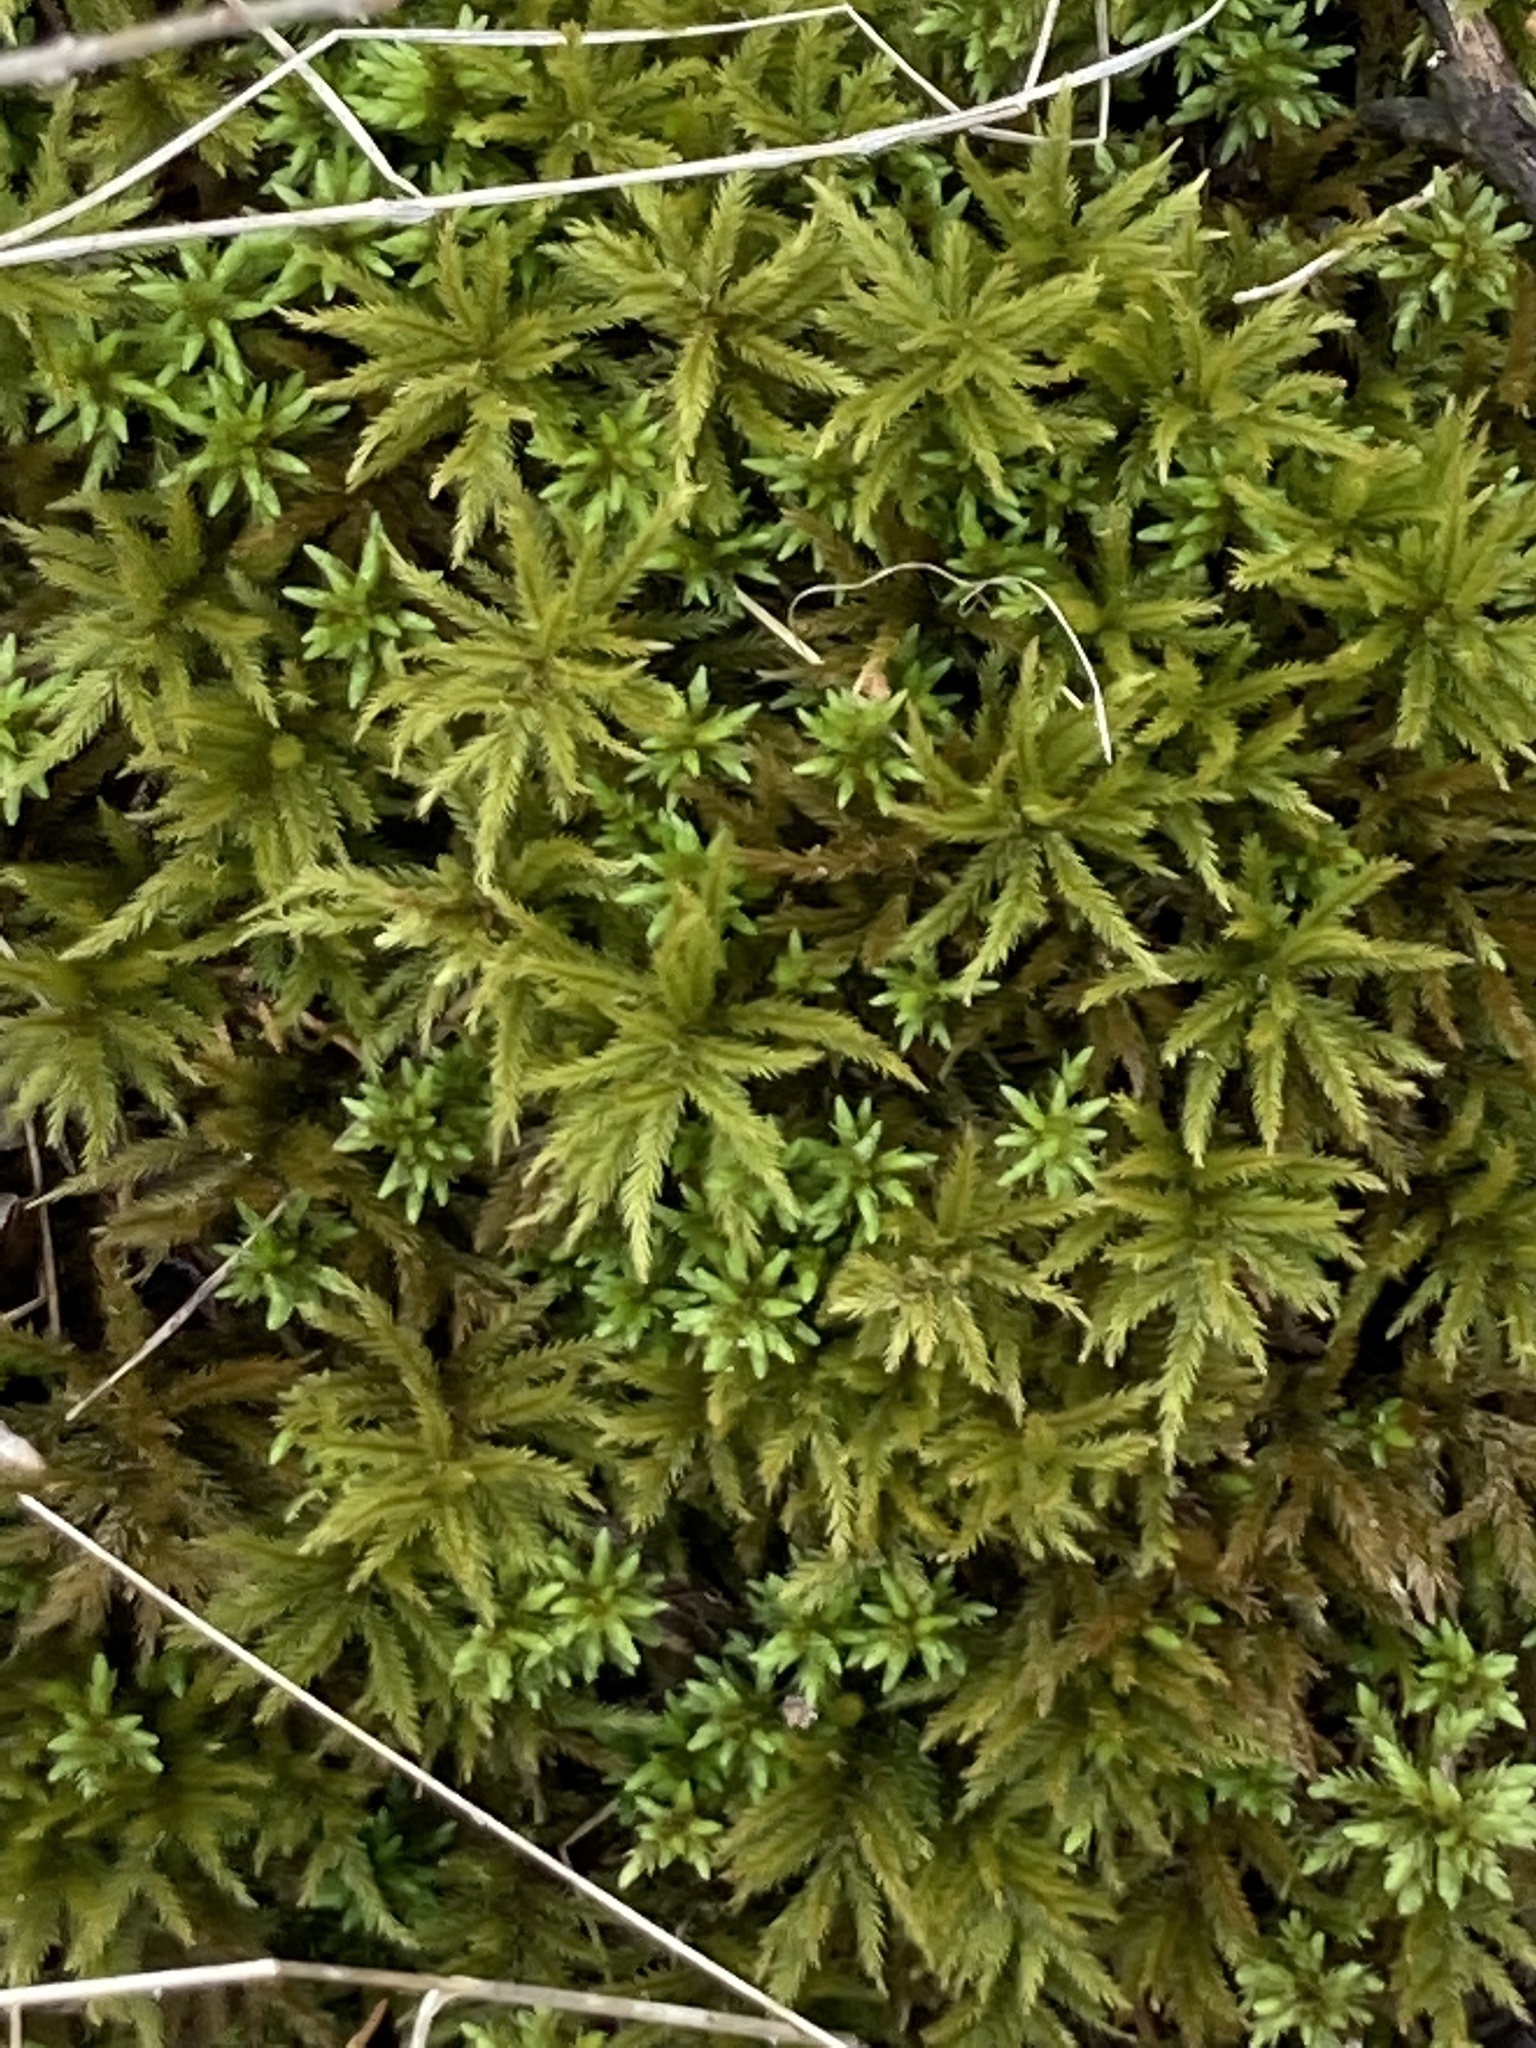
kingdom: Plantae
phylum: Bryophyta
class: Bryopsida
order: Hypnales
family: Climaciaceae
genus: Climacium
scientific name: Climacium americanum
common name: American tree moss
